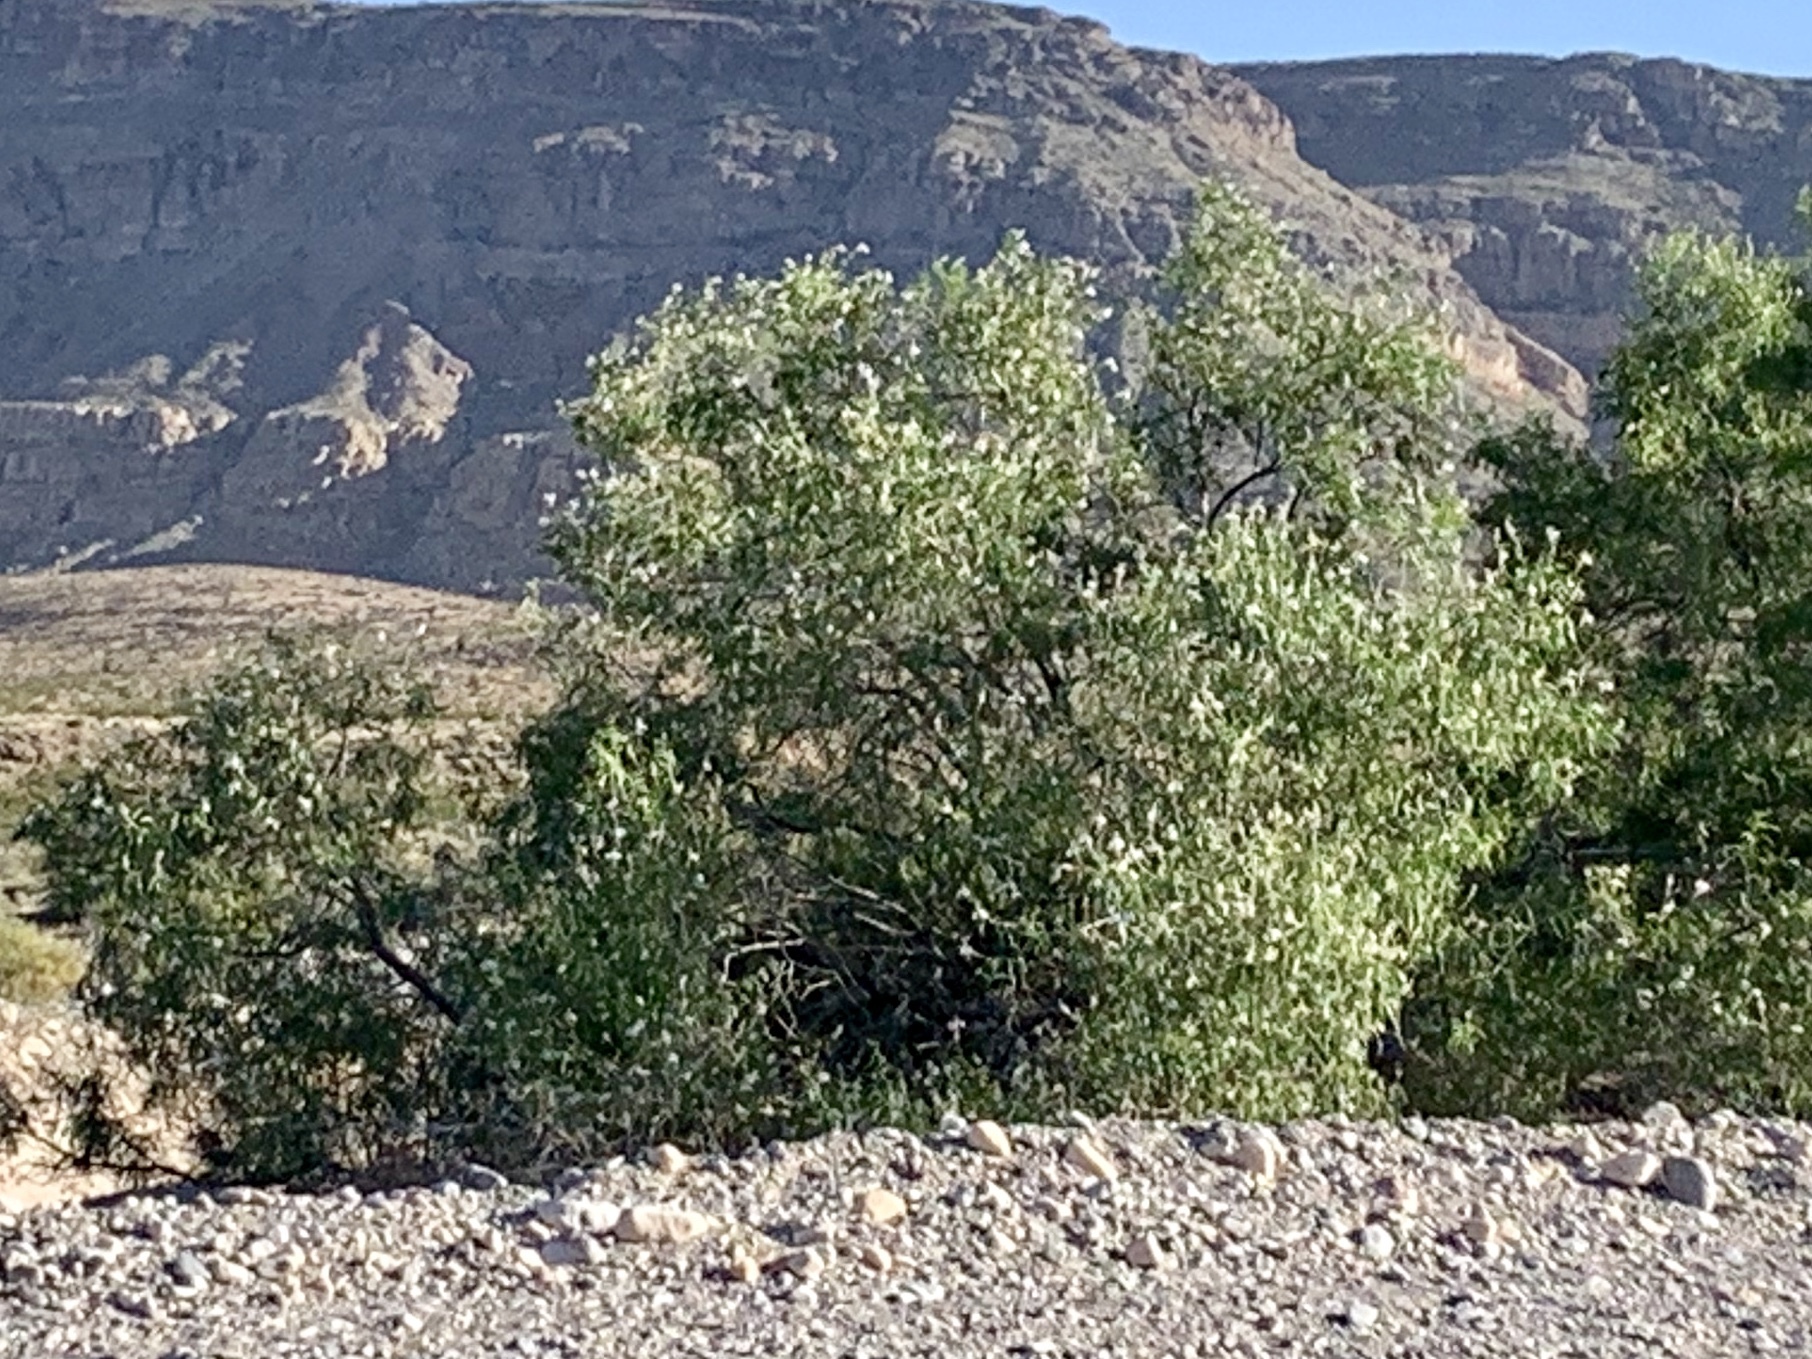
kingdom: Plantae
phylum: Tracheophyta
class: Magnoliopsida
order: Lamiales
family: Bignoniaceae
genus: Chilopsis
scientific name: Chilopsis linearis
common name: Desert-willow
